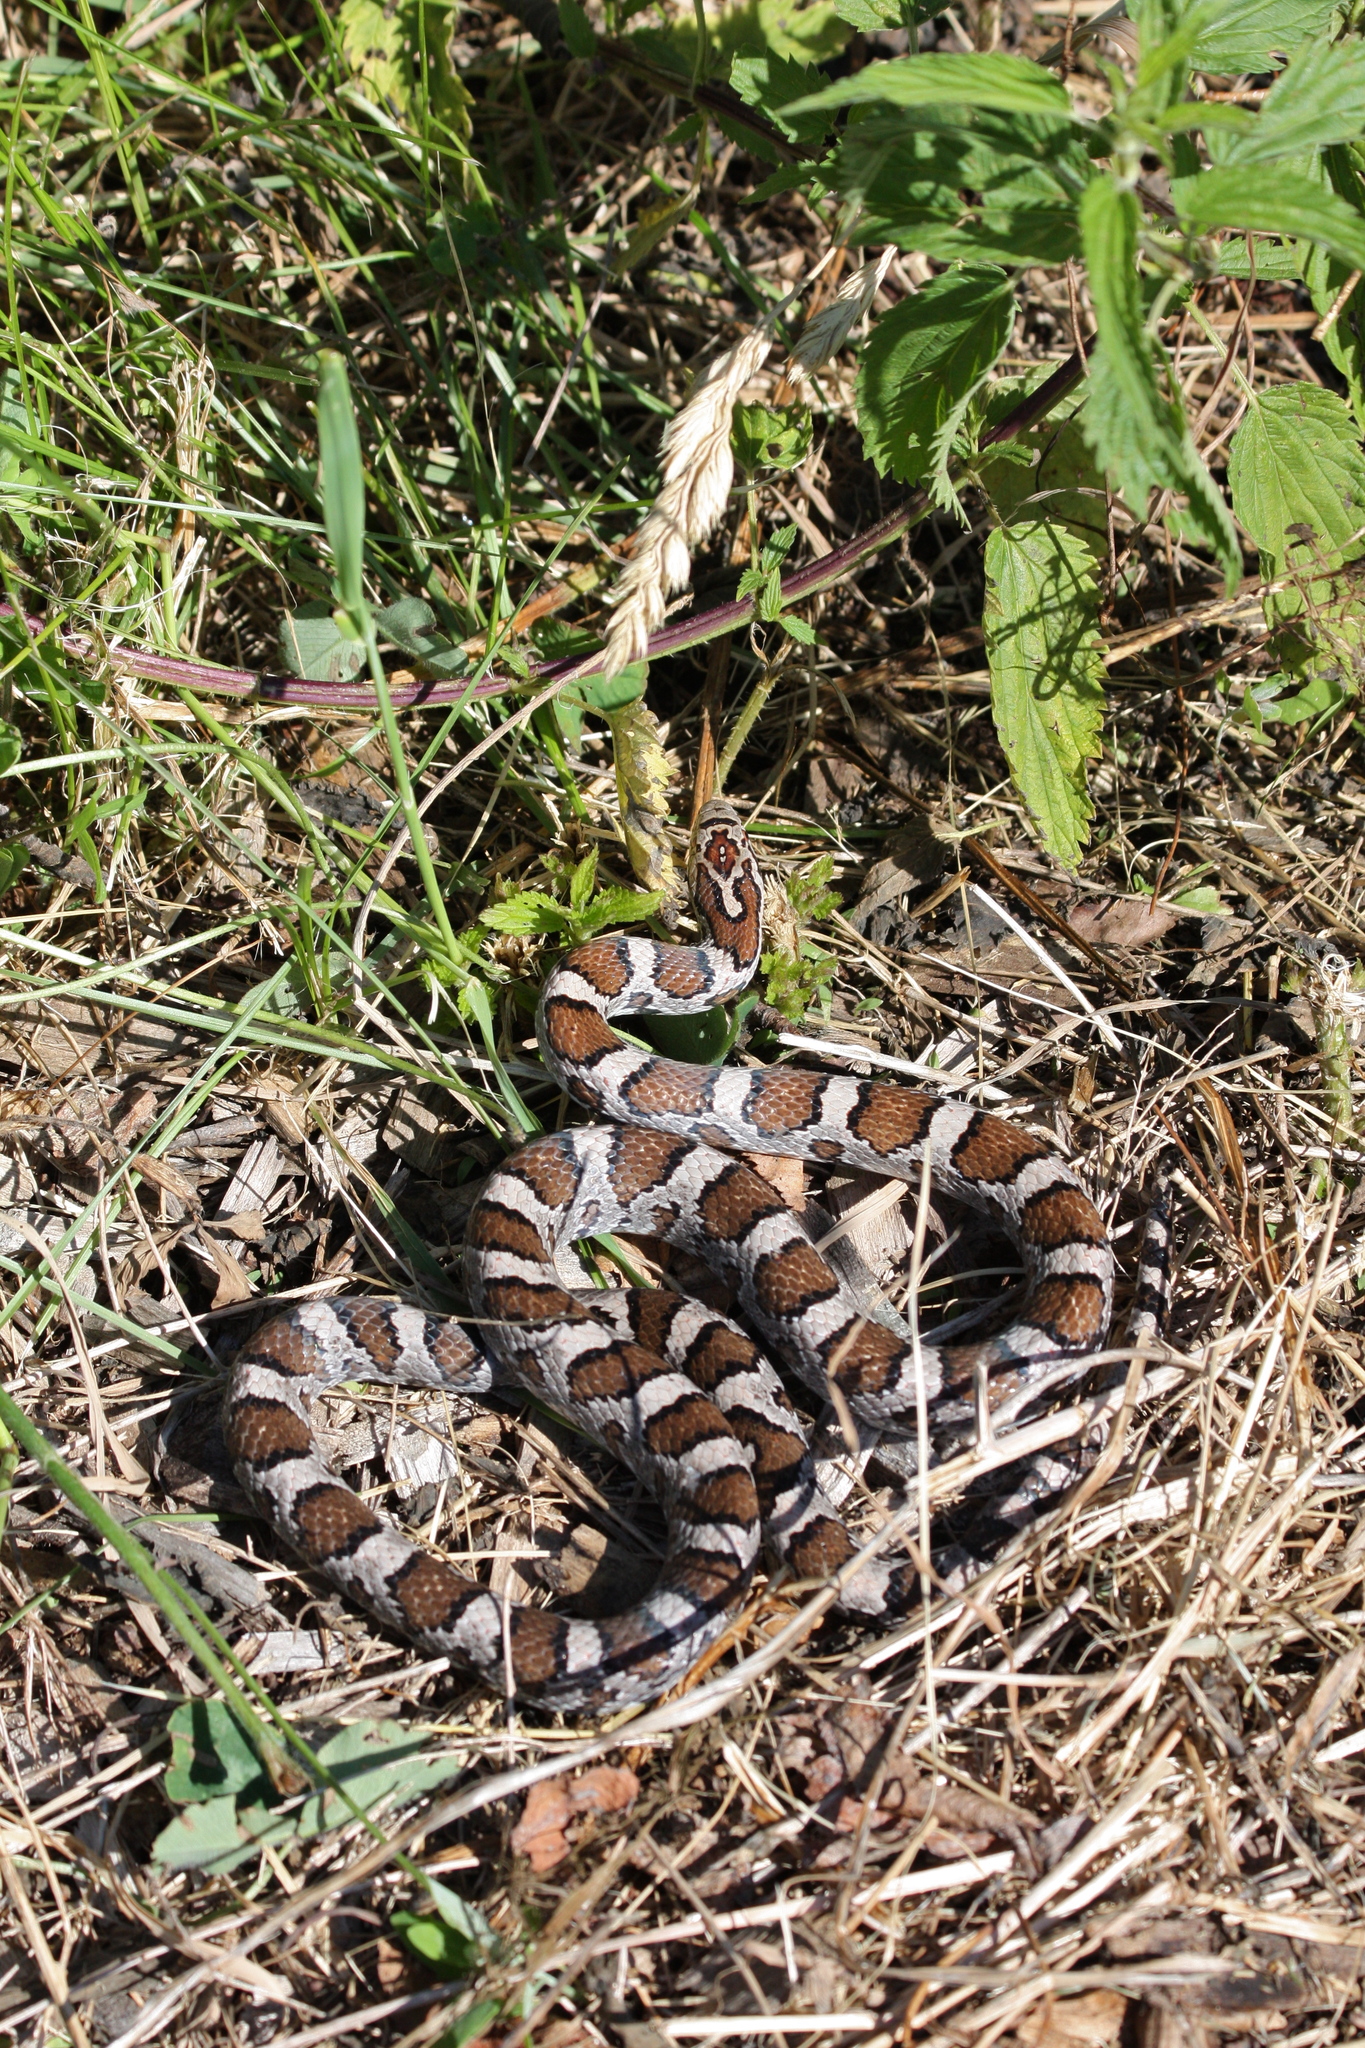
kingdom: Animalia
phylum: Chordata
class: Squamata
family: Colubridae
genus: Lampropeltis
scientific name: Lampropeltis triangulum
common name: Eastern milksnake
